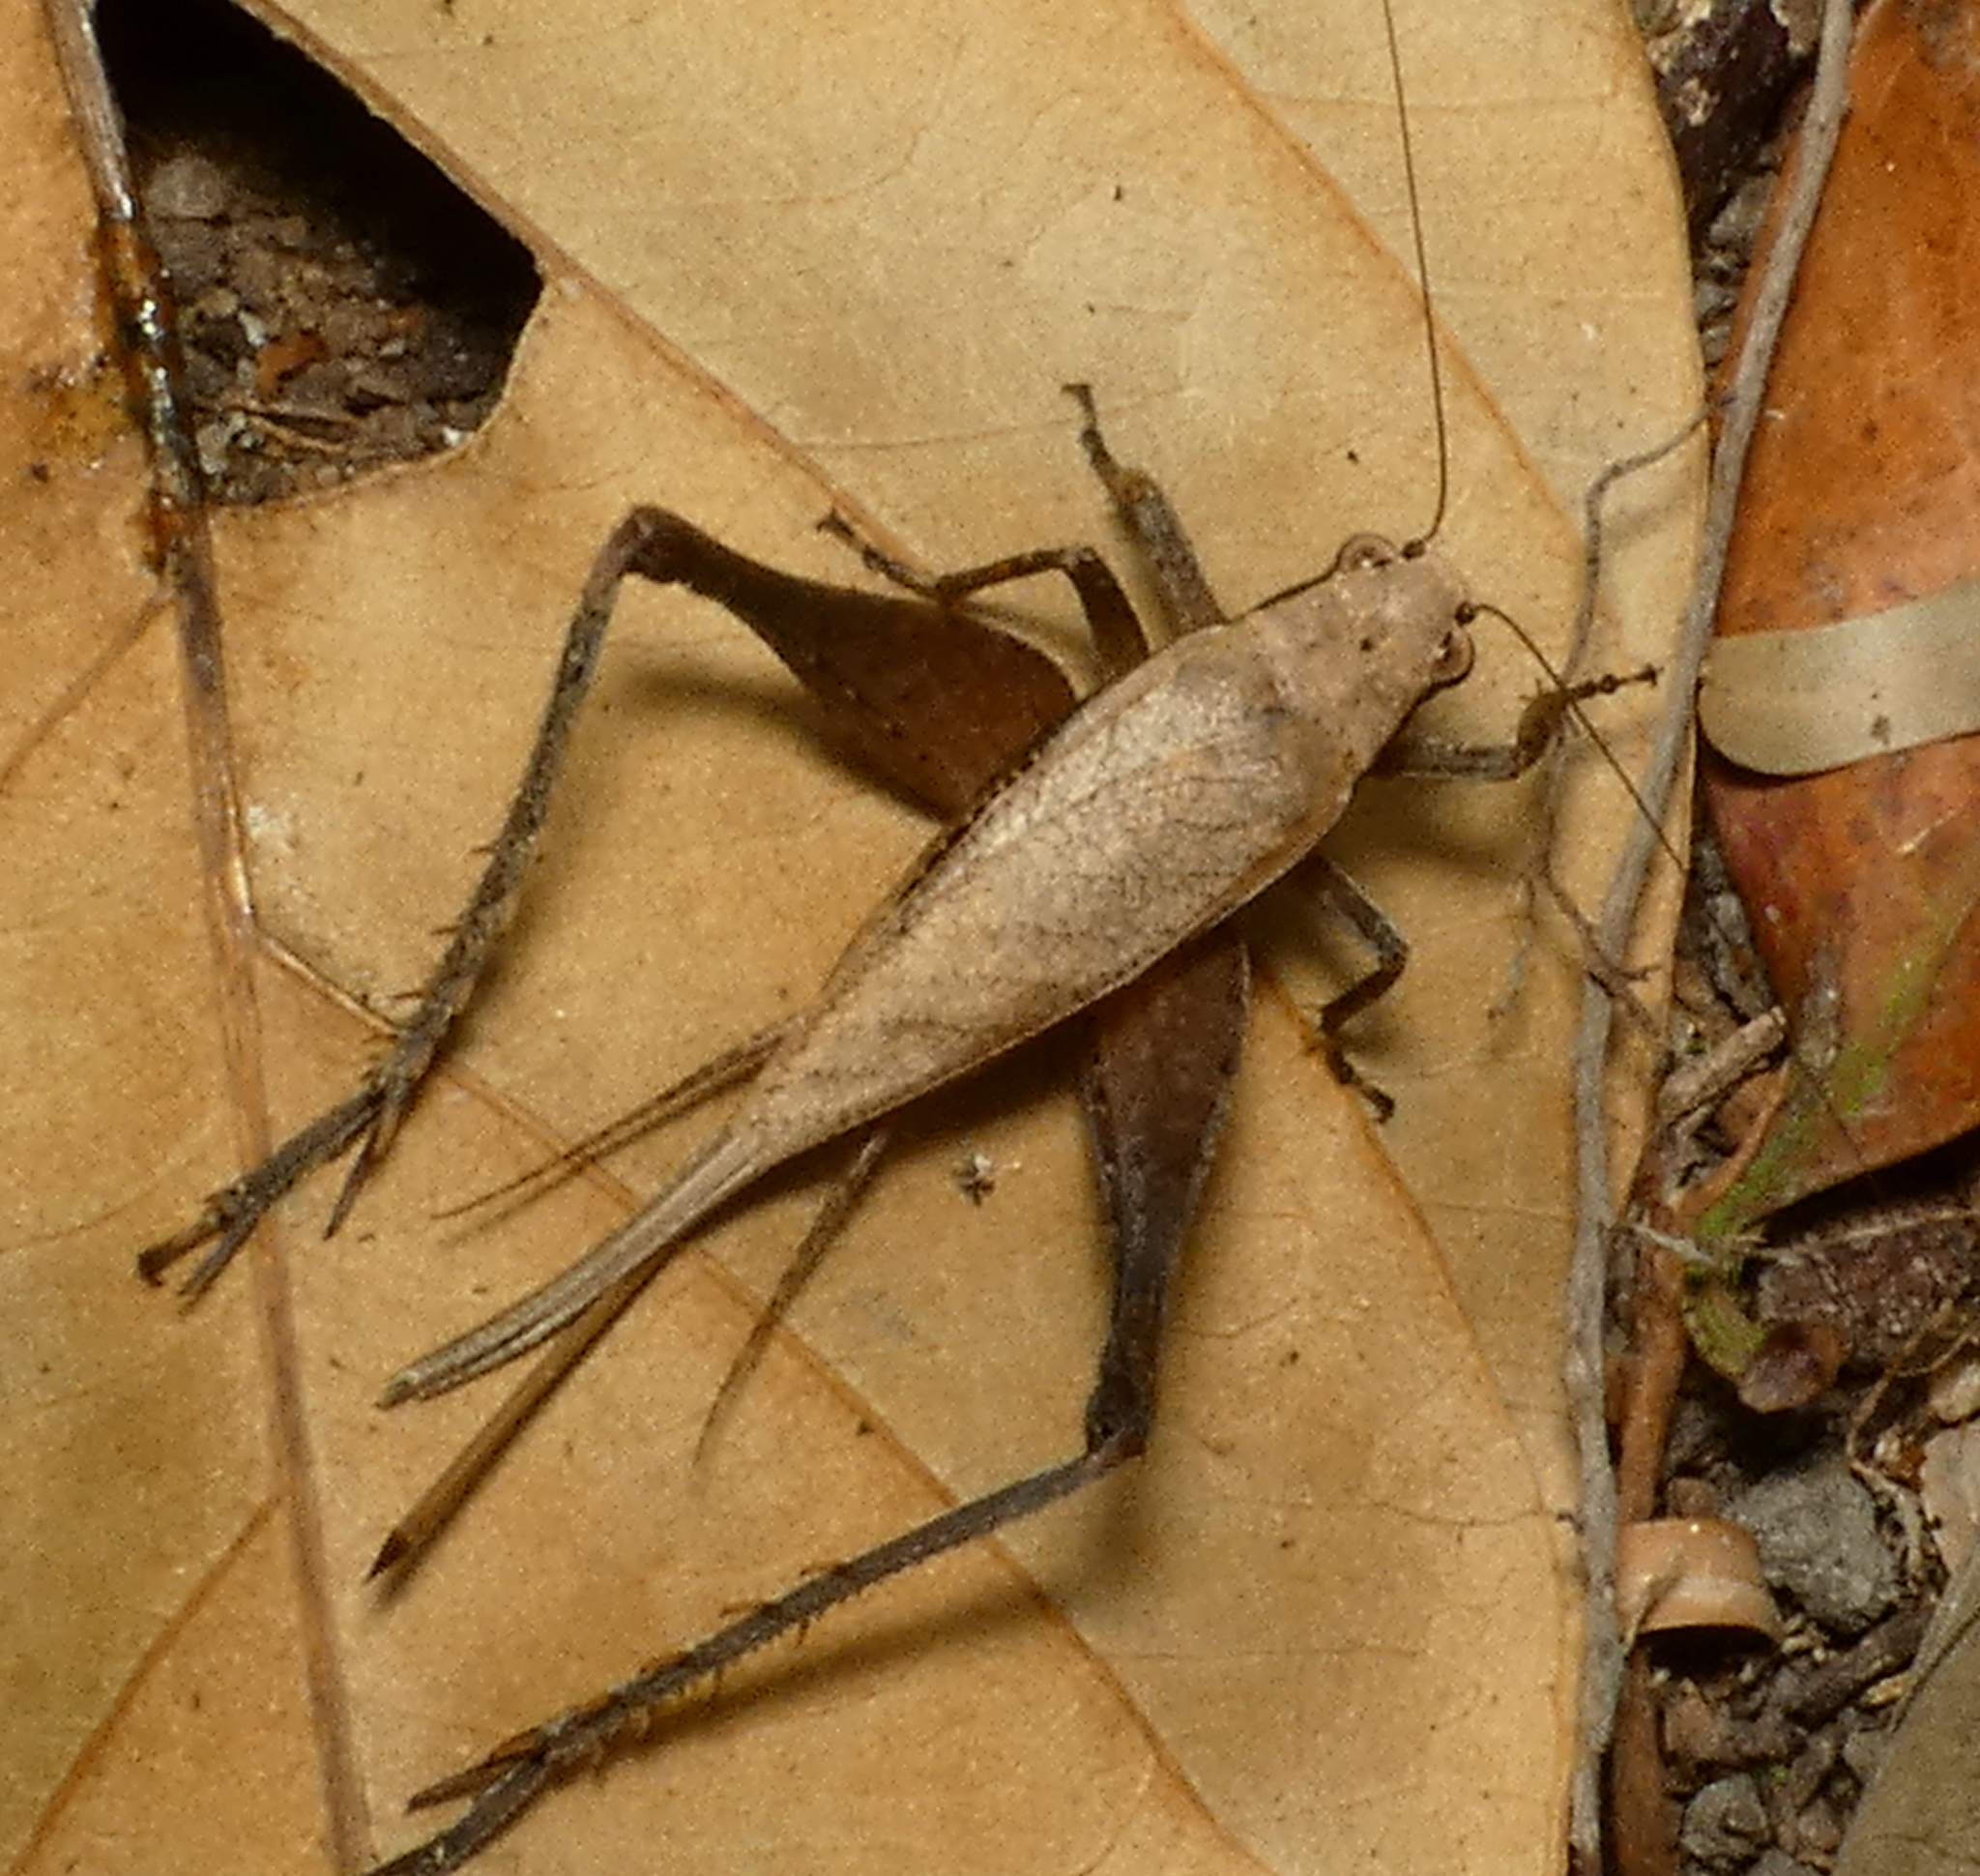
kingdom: Animalia
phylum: Arthropoda
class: Insecta
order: Orthoptera
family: Gryllidae
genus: Eneoptera
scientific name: Eneoptera surinamensis
